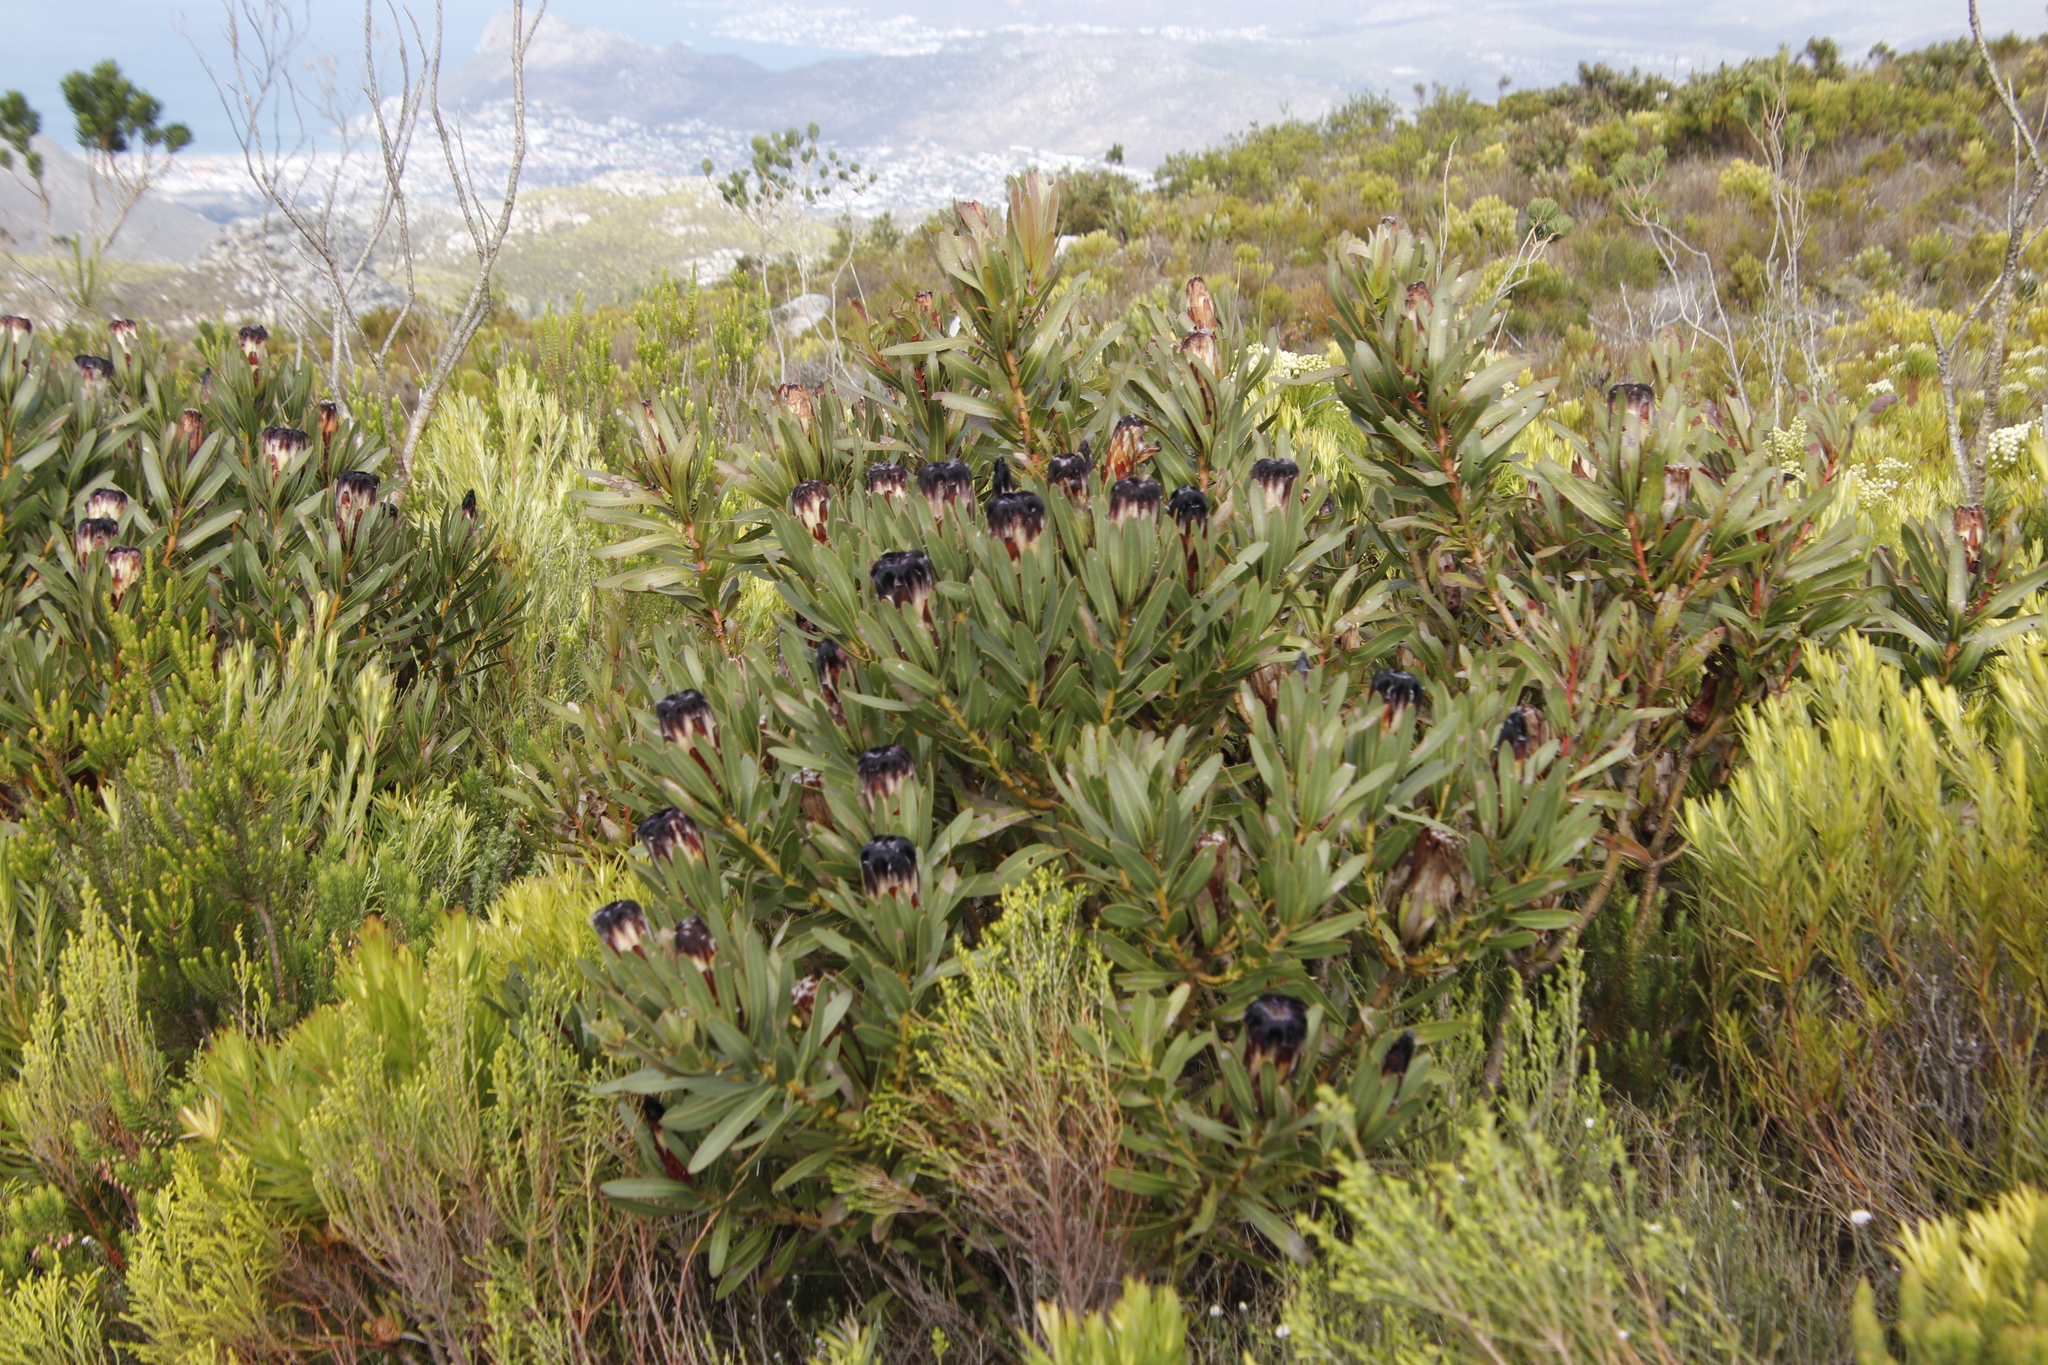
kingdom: Plantae
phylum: Tracheophyta
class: Magnoliopsida
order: Proteales
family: Proteaceae
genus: Protea
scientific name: Protea lepidocarpodendron
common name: Black-bearded protea
